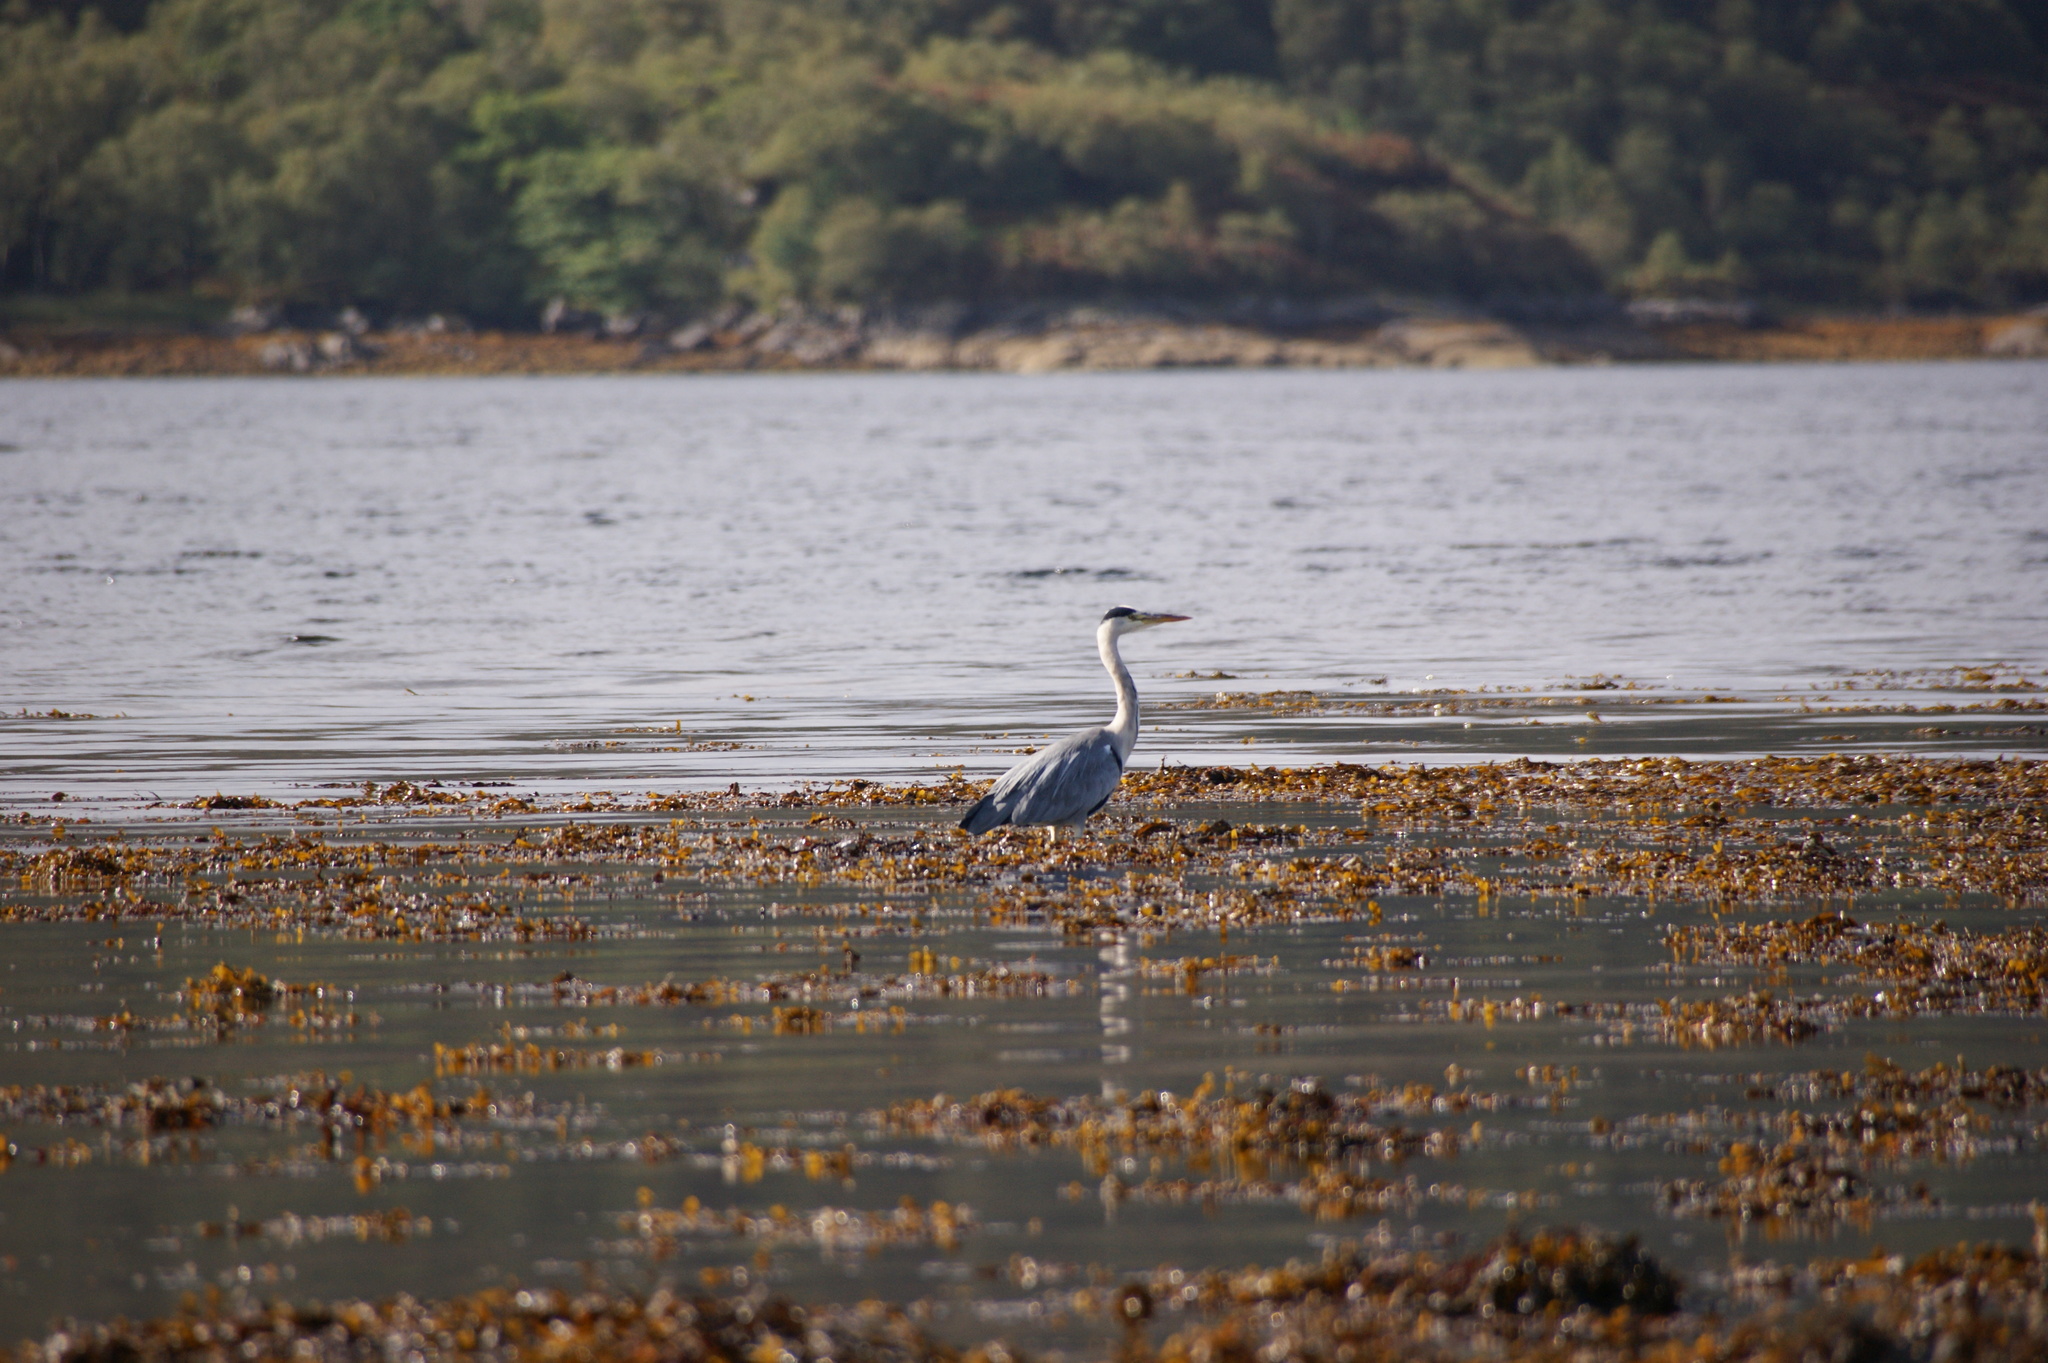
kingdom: Animalia
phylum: Chordata
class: Aves
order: Pelecaniformes
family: Ardeidae
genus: Ardea
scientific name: Ardea cinerea
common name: Grey heron
